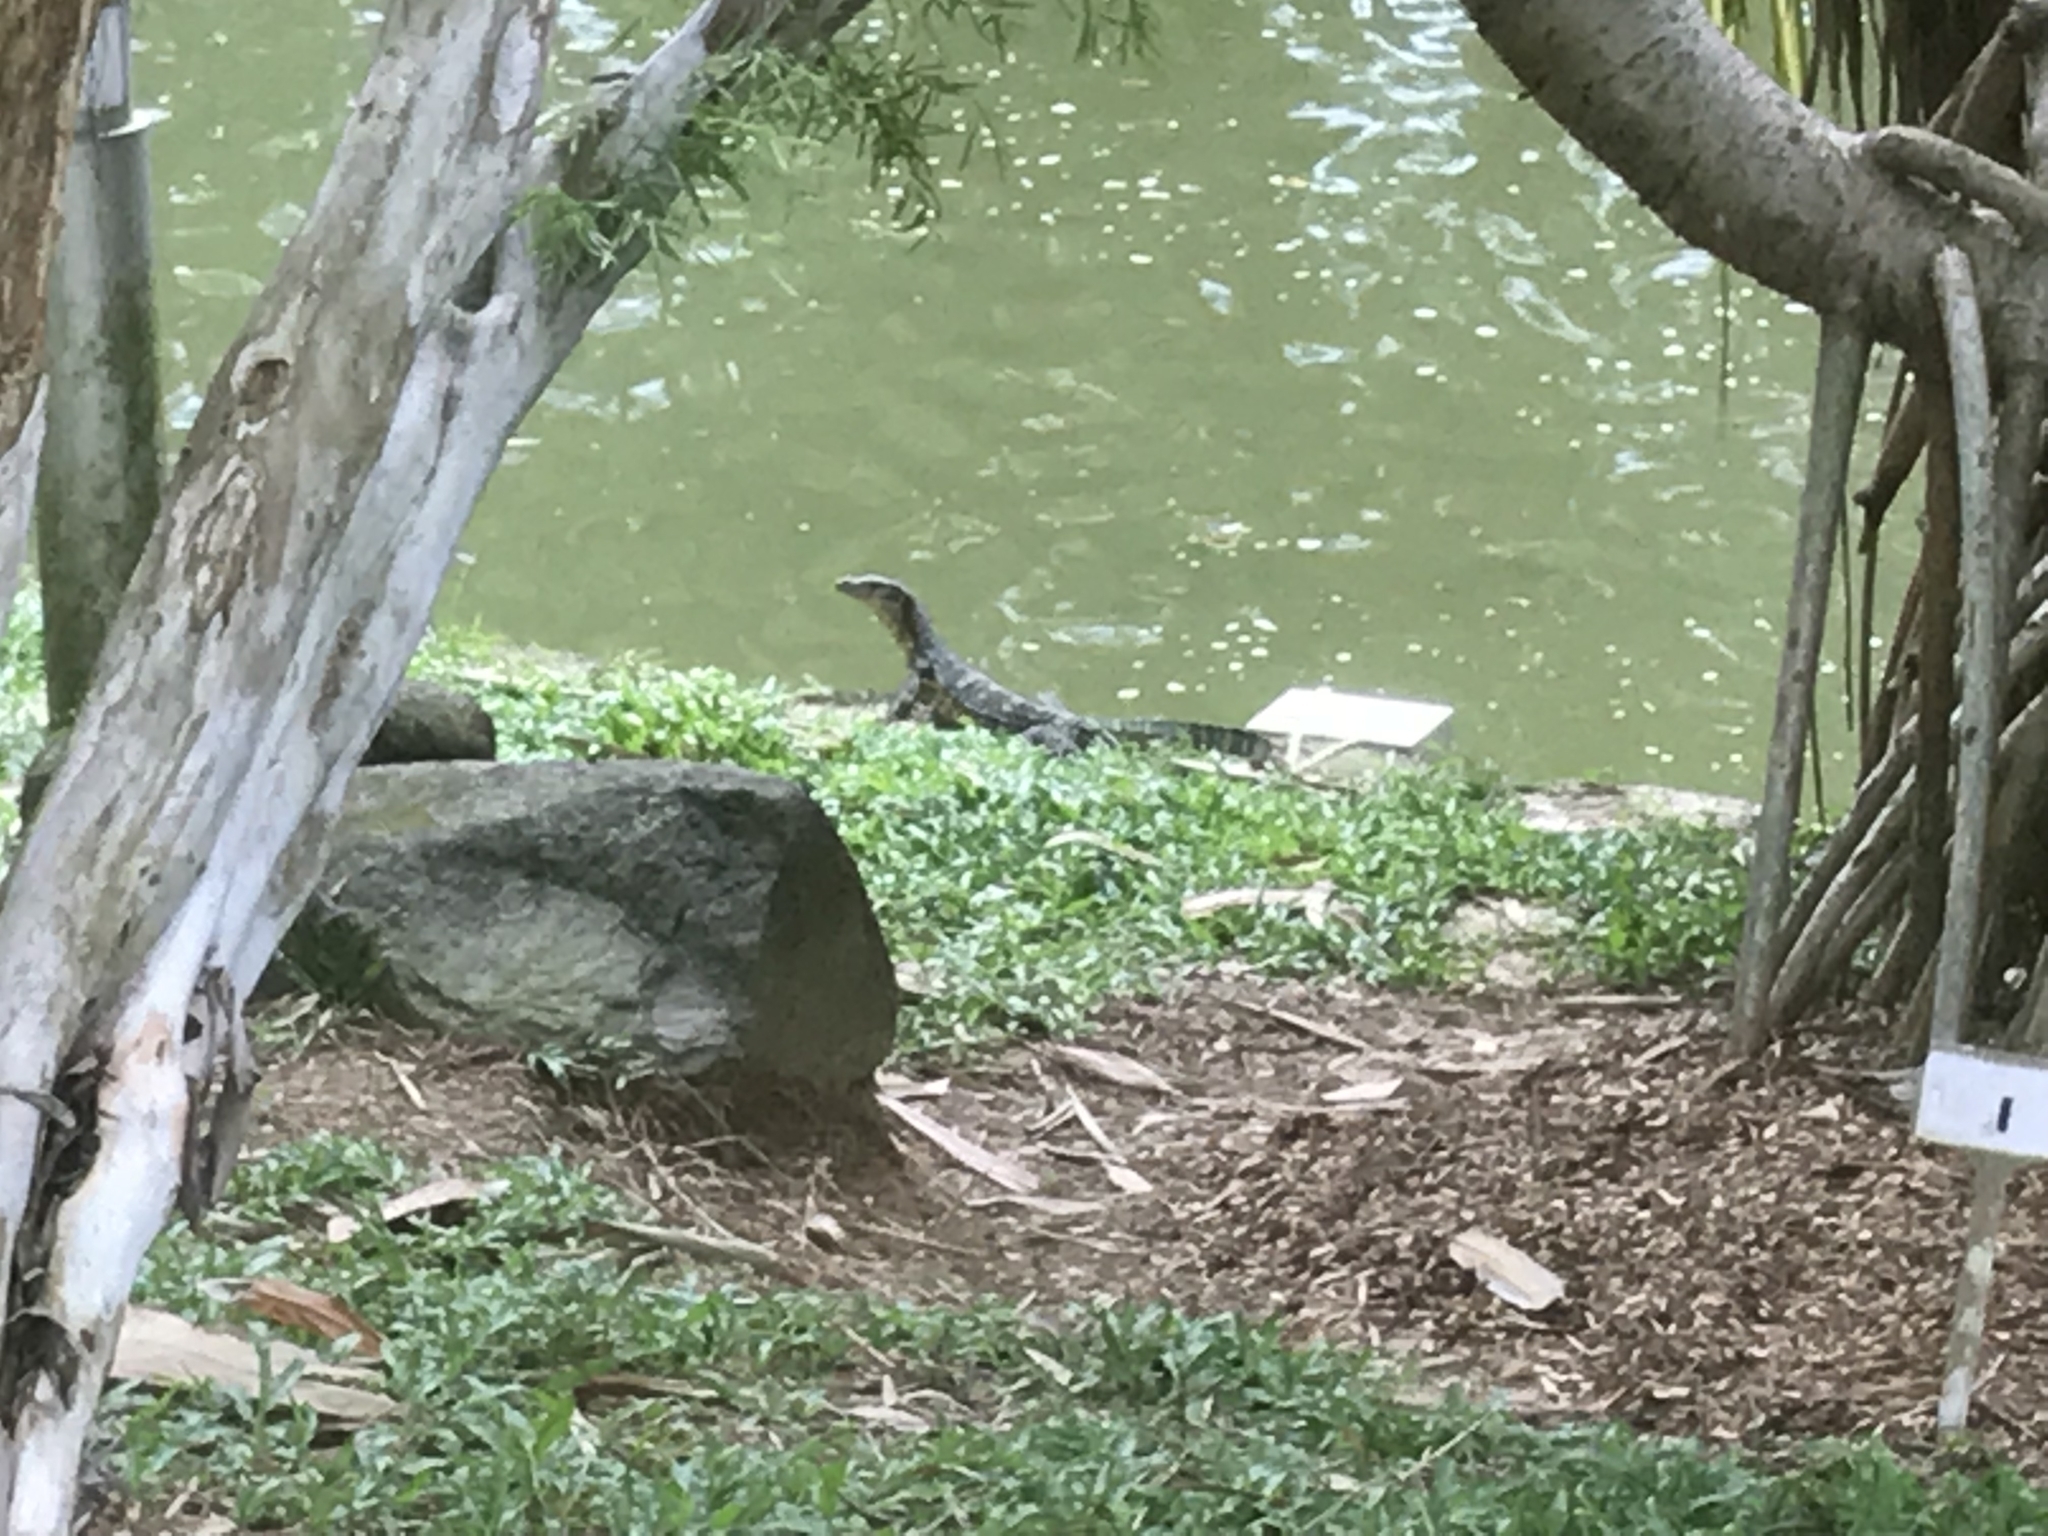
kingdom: Animalia
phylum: Chordata
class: Squamata
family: Varanidae
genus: Varanus
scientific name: Varanus salvator
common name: Common water monitor
